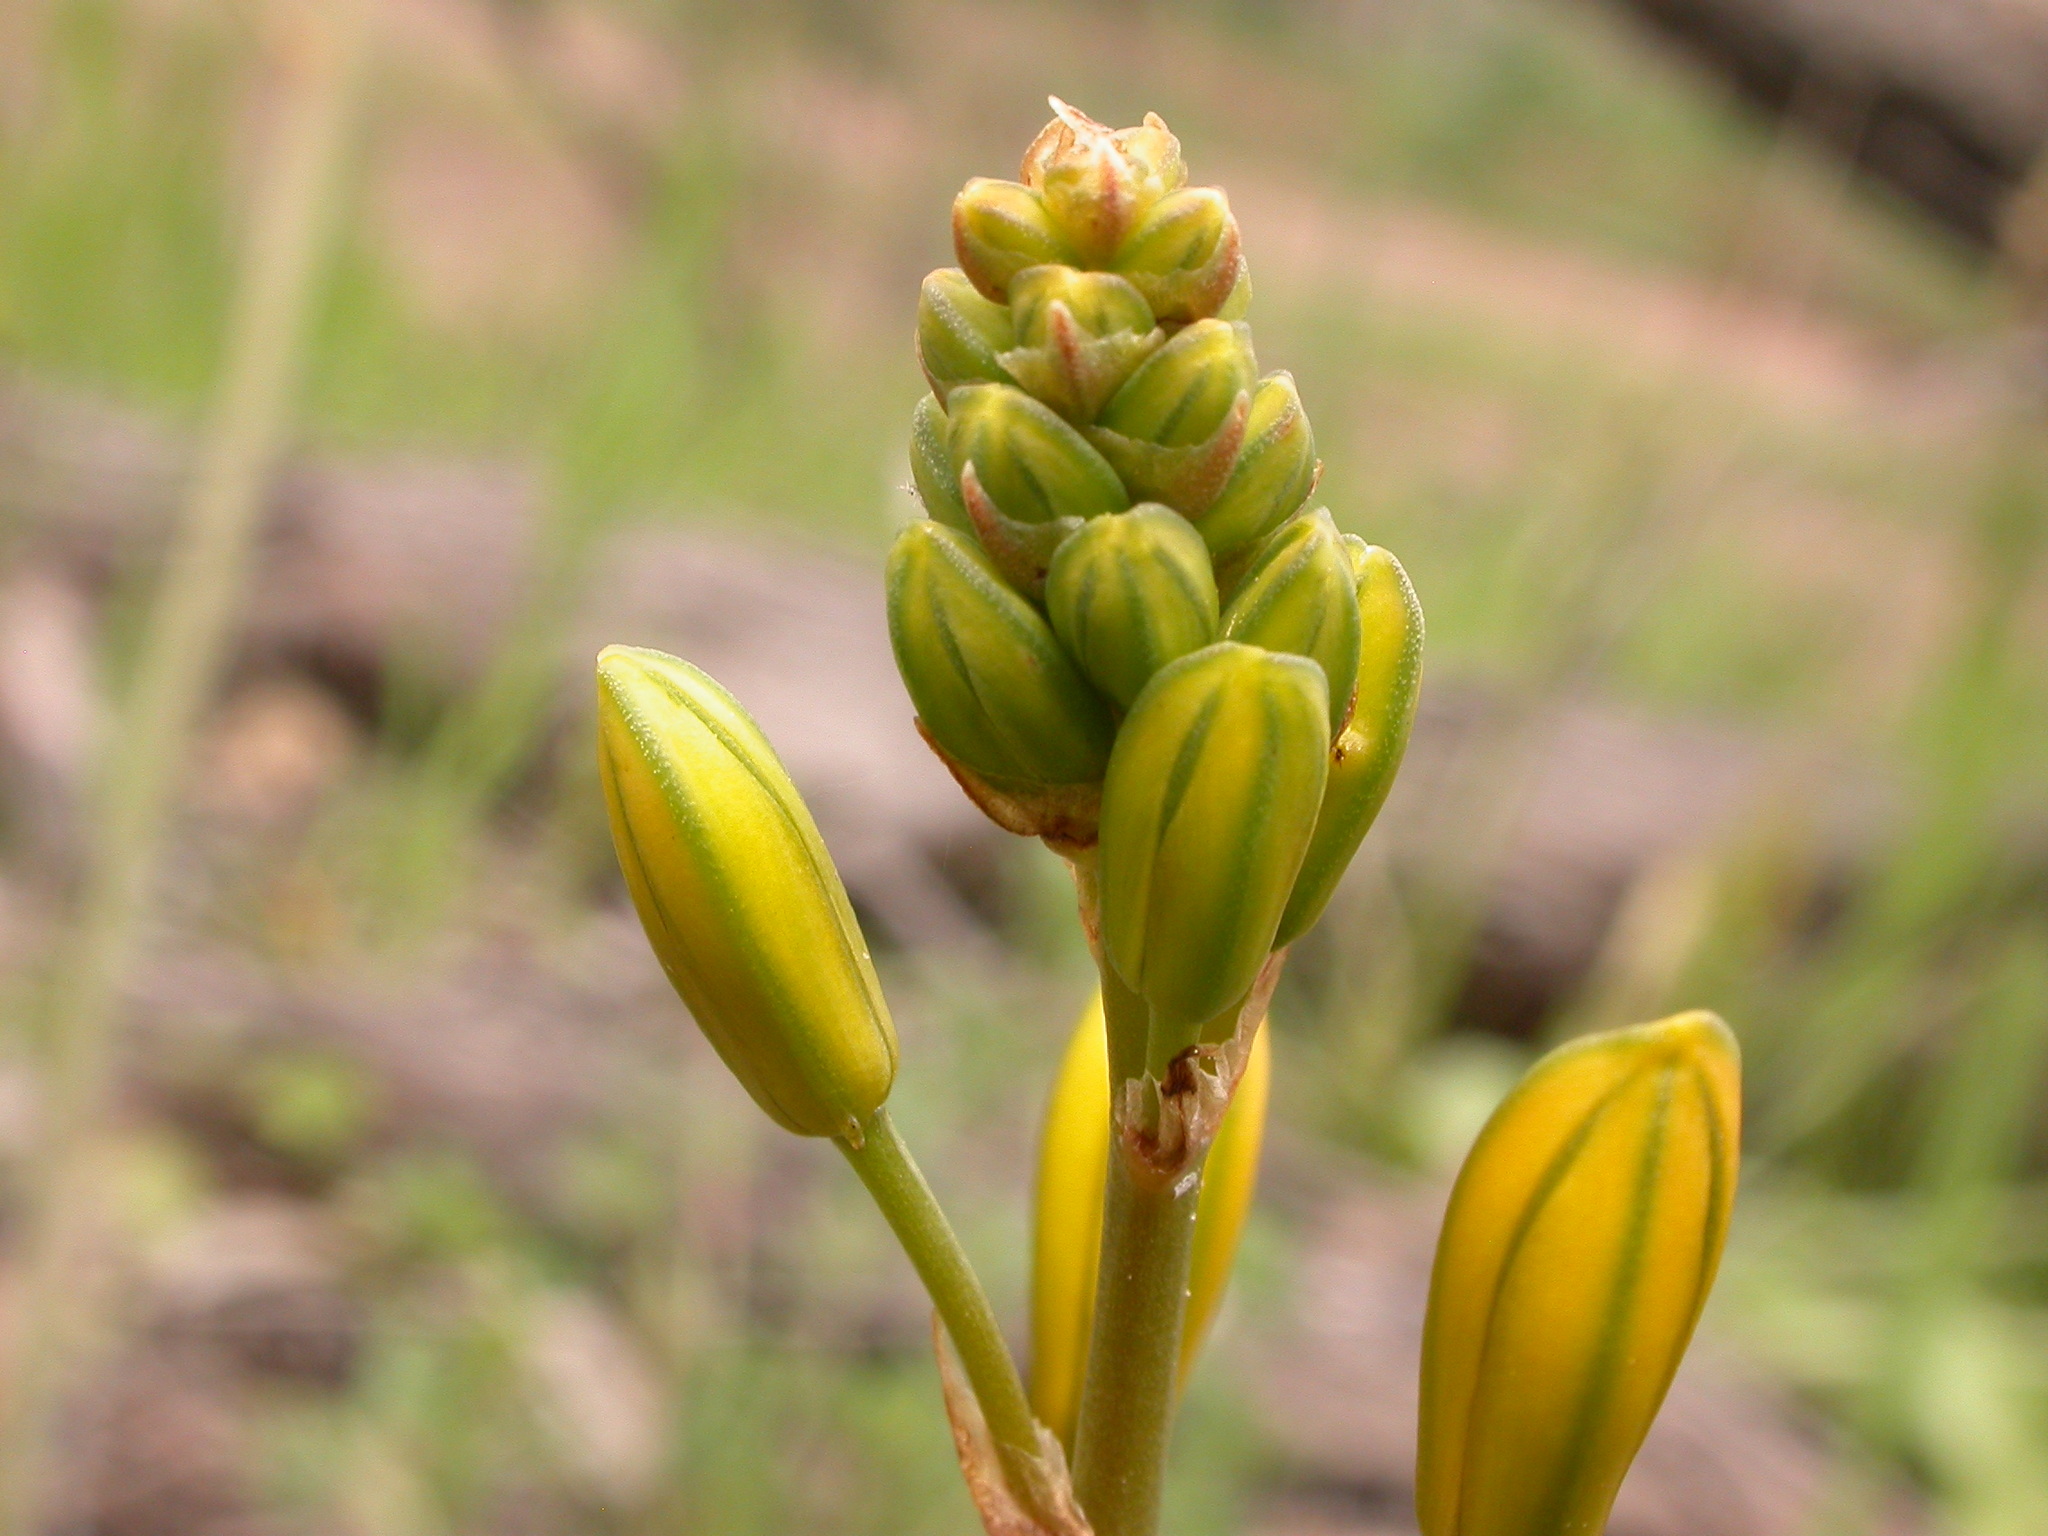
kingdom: Plantae
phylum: Tracheophyta
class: Liliopsida
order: Asparagales
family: Asphodelaceae
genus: Bulbine
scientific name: Bulbine bulbosa
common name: Golden-lily
